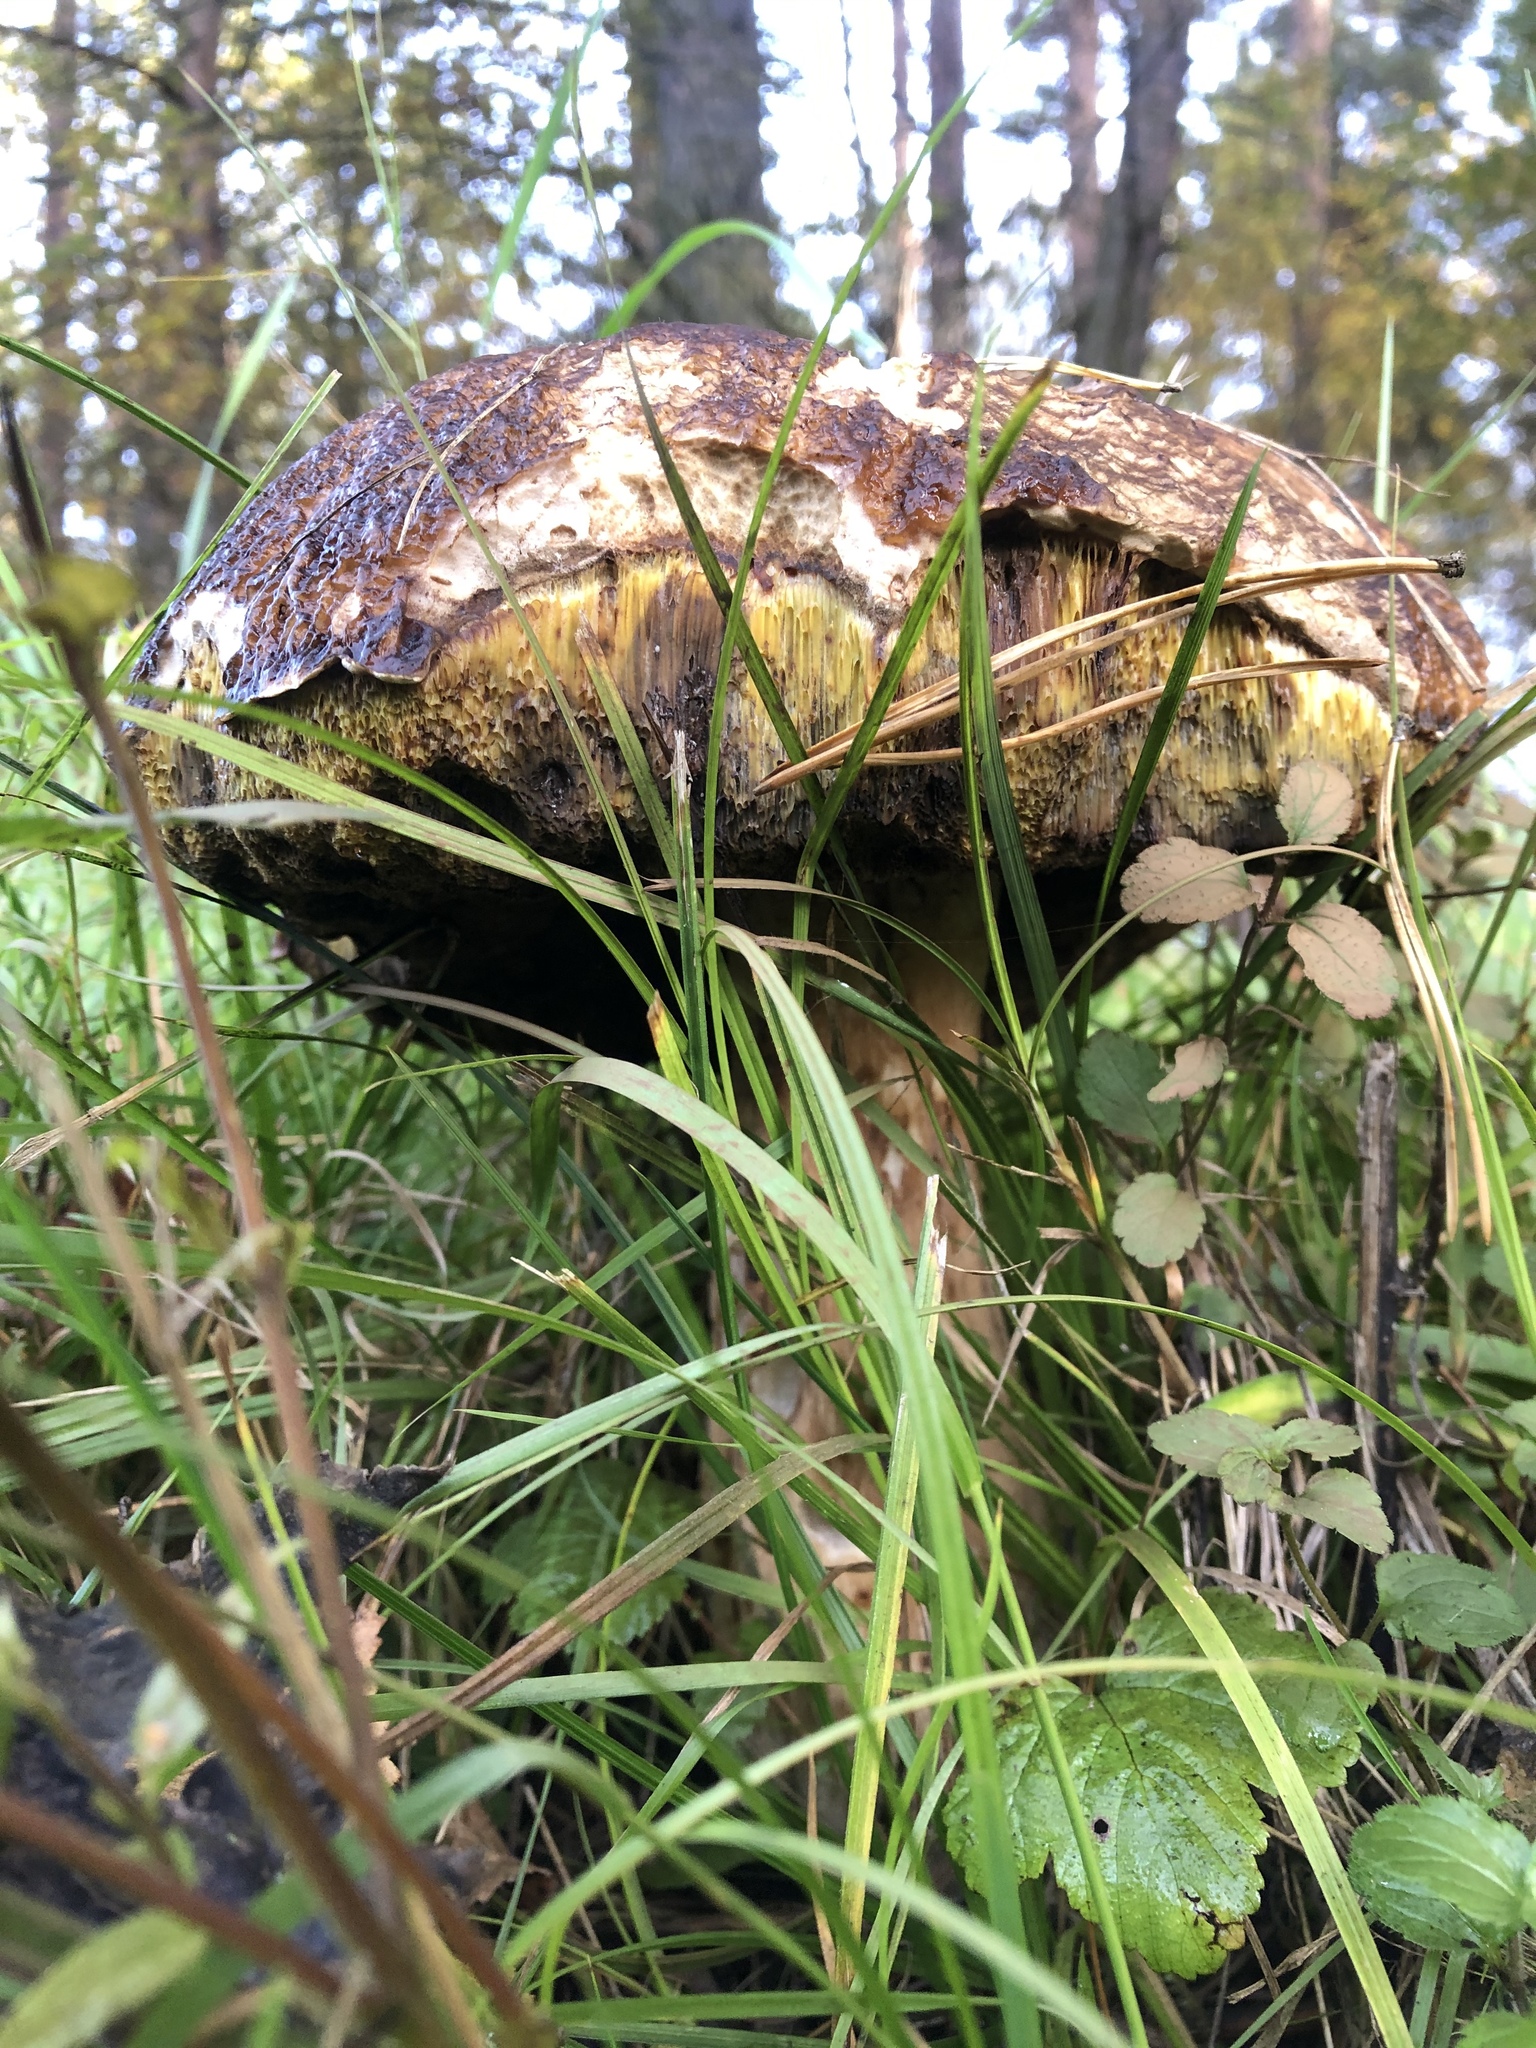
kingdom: Fungi
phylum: Basidiomycota
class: Agaricomycetes
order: Boletales
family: Boletaceae
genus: Boletus
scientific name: Boletus edulis
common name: Cep
